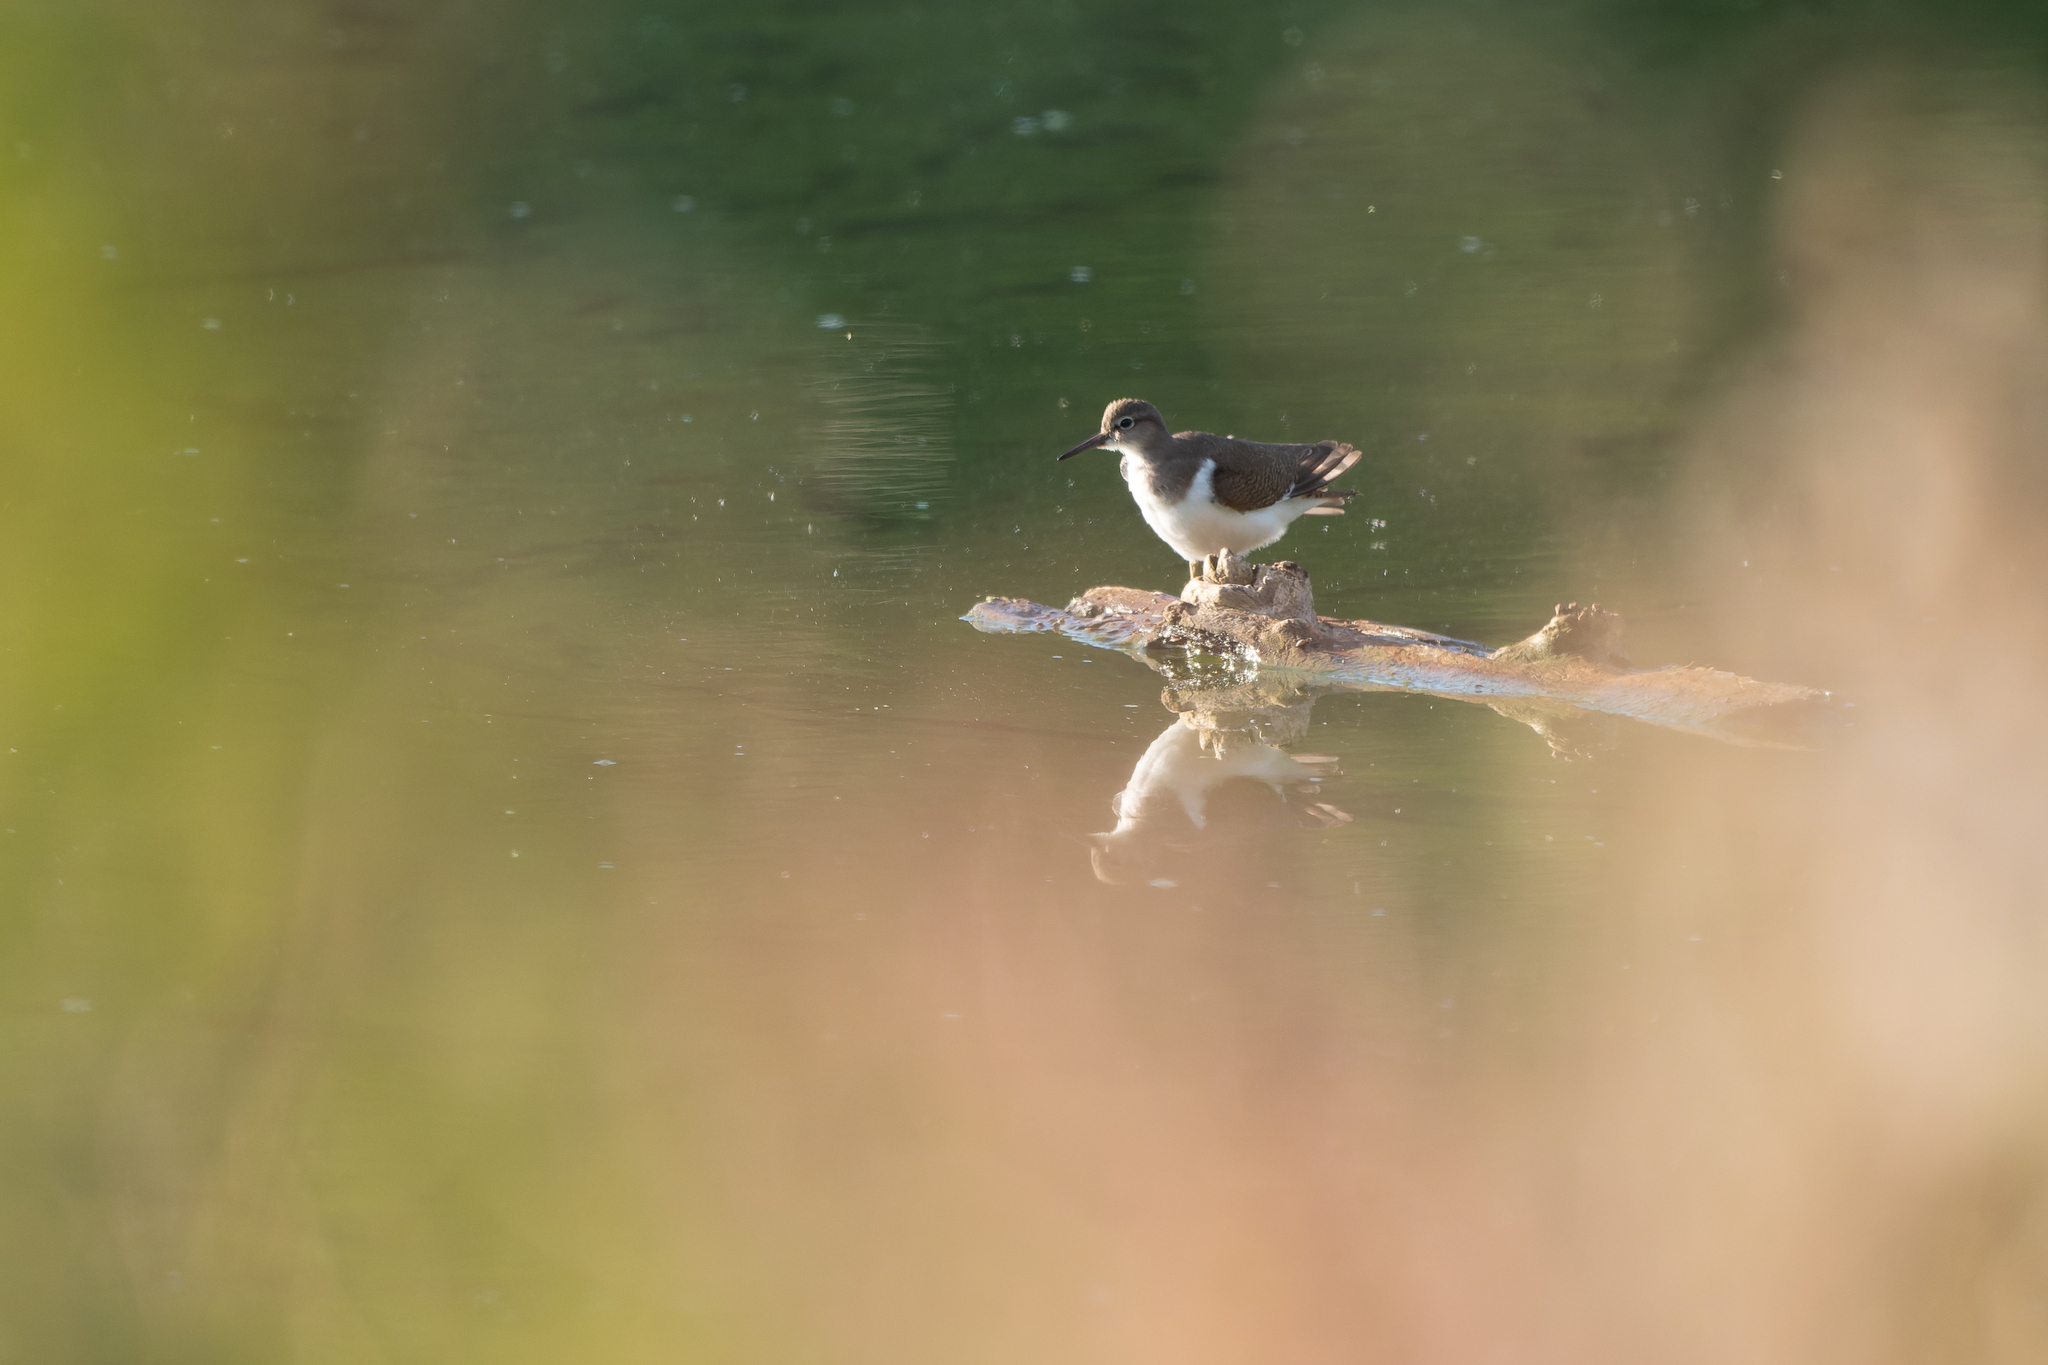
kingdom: Animalia
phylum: Chordata
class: Aves
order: Charadriiformes
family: Scolopacidae
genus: Actitis
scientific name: Actitis hypoleucos
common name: Common sandpiper
